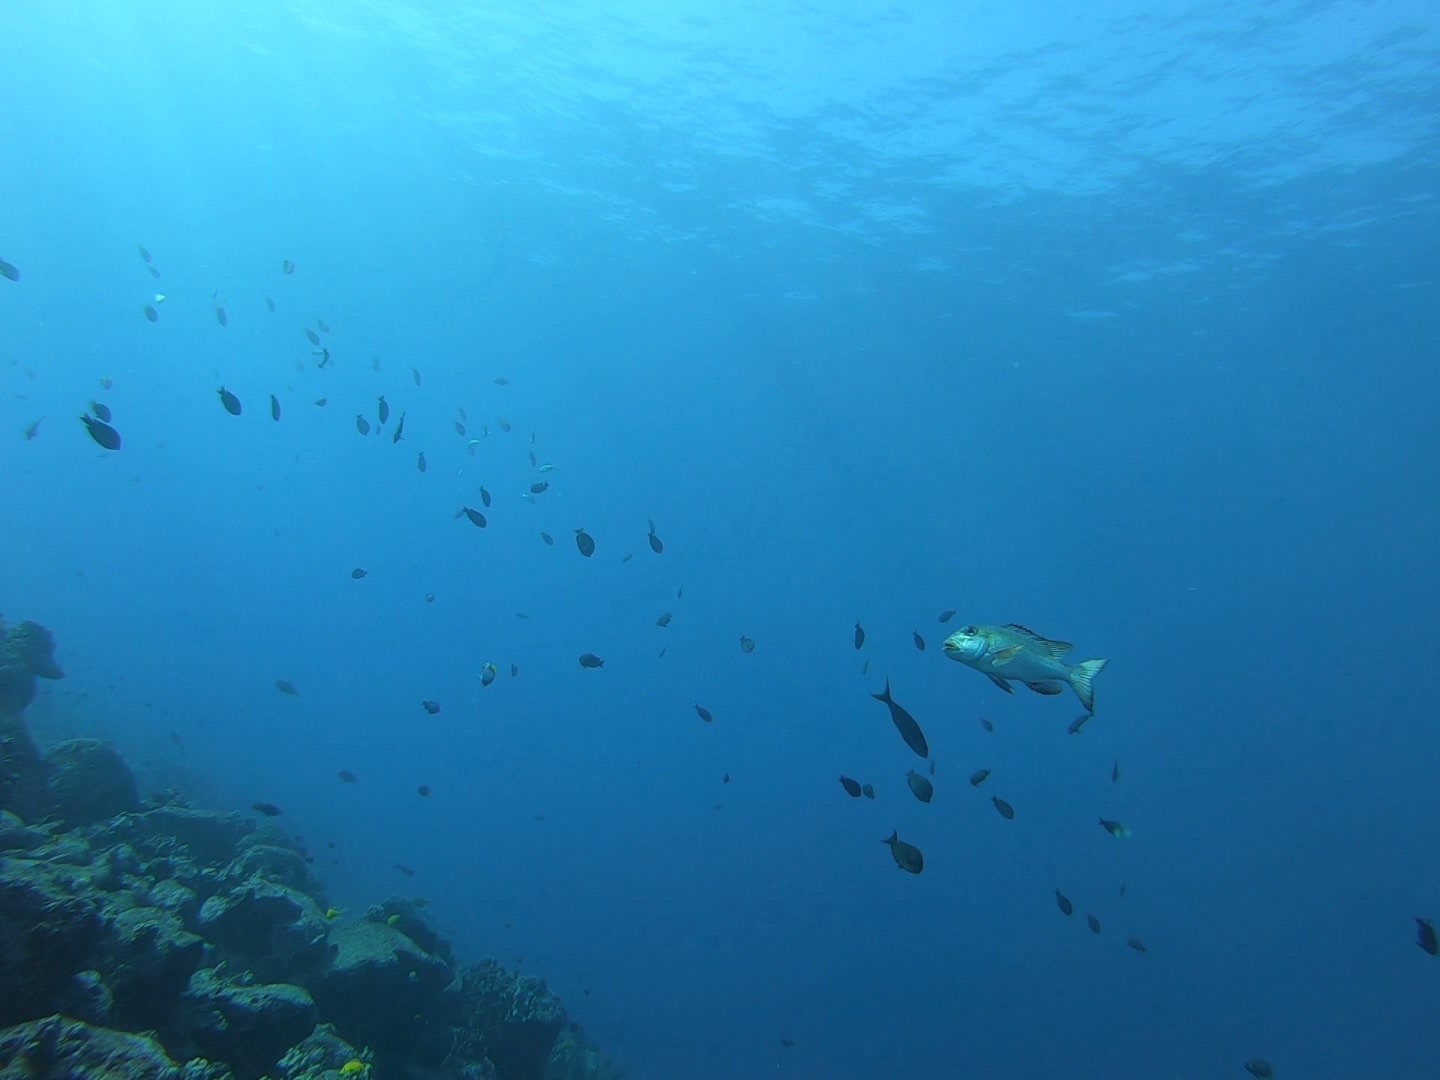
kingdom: Animalia
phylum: Chordata
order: Perciformes
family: Lethrinidae
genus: Monotaxis
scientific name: Monotaxis grandoculis
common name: Bigeye emperor
